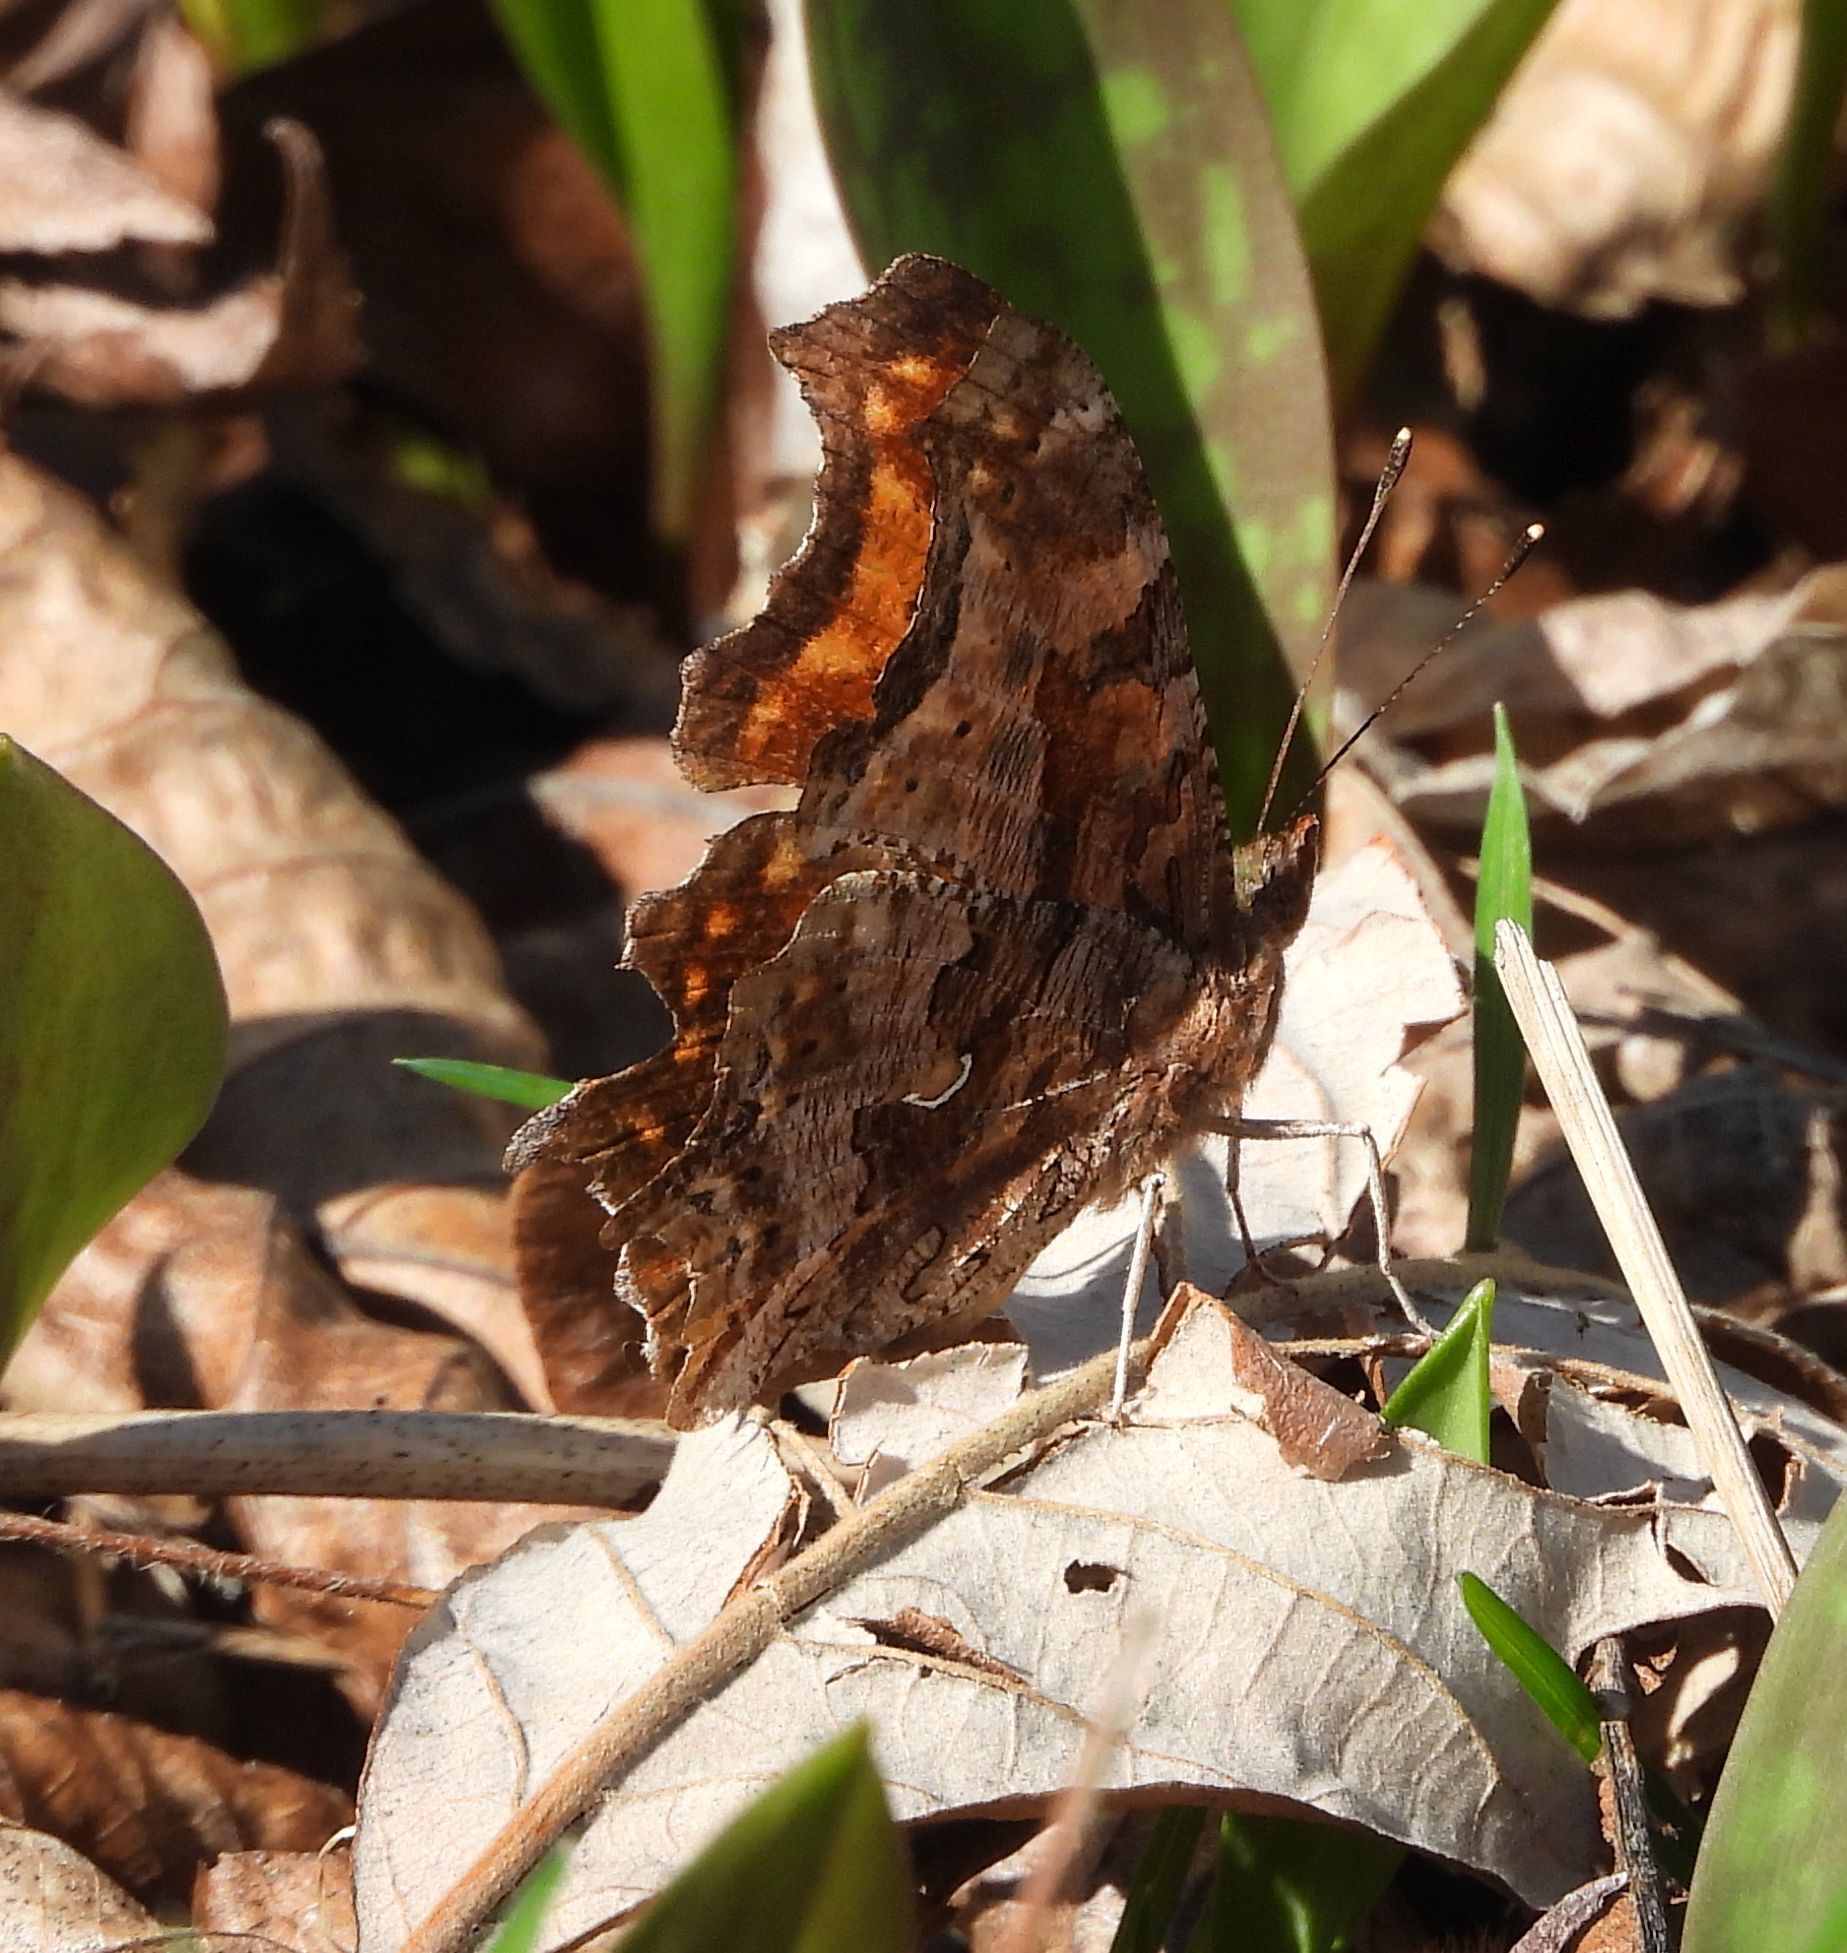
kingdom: Animalia
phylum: Arthropoda
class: Insecta
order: Lepidoptera
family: Nymphalidae
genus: Polygonia
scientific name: Polygonia comma
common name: Eastern comma
